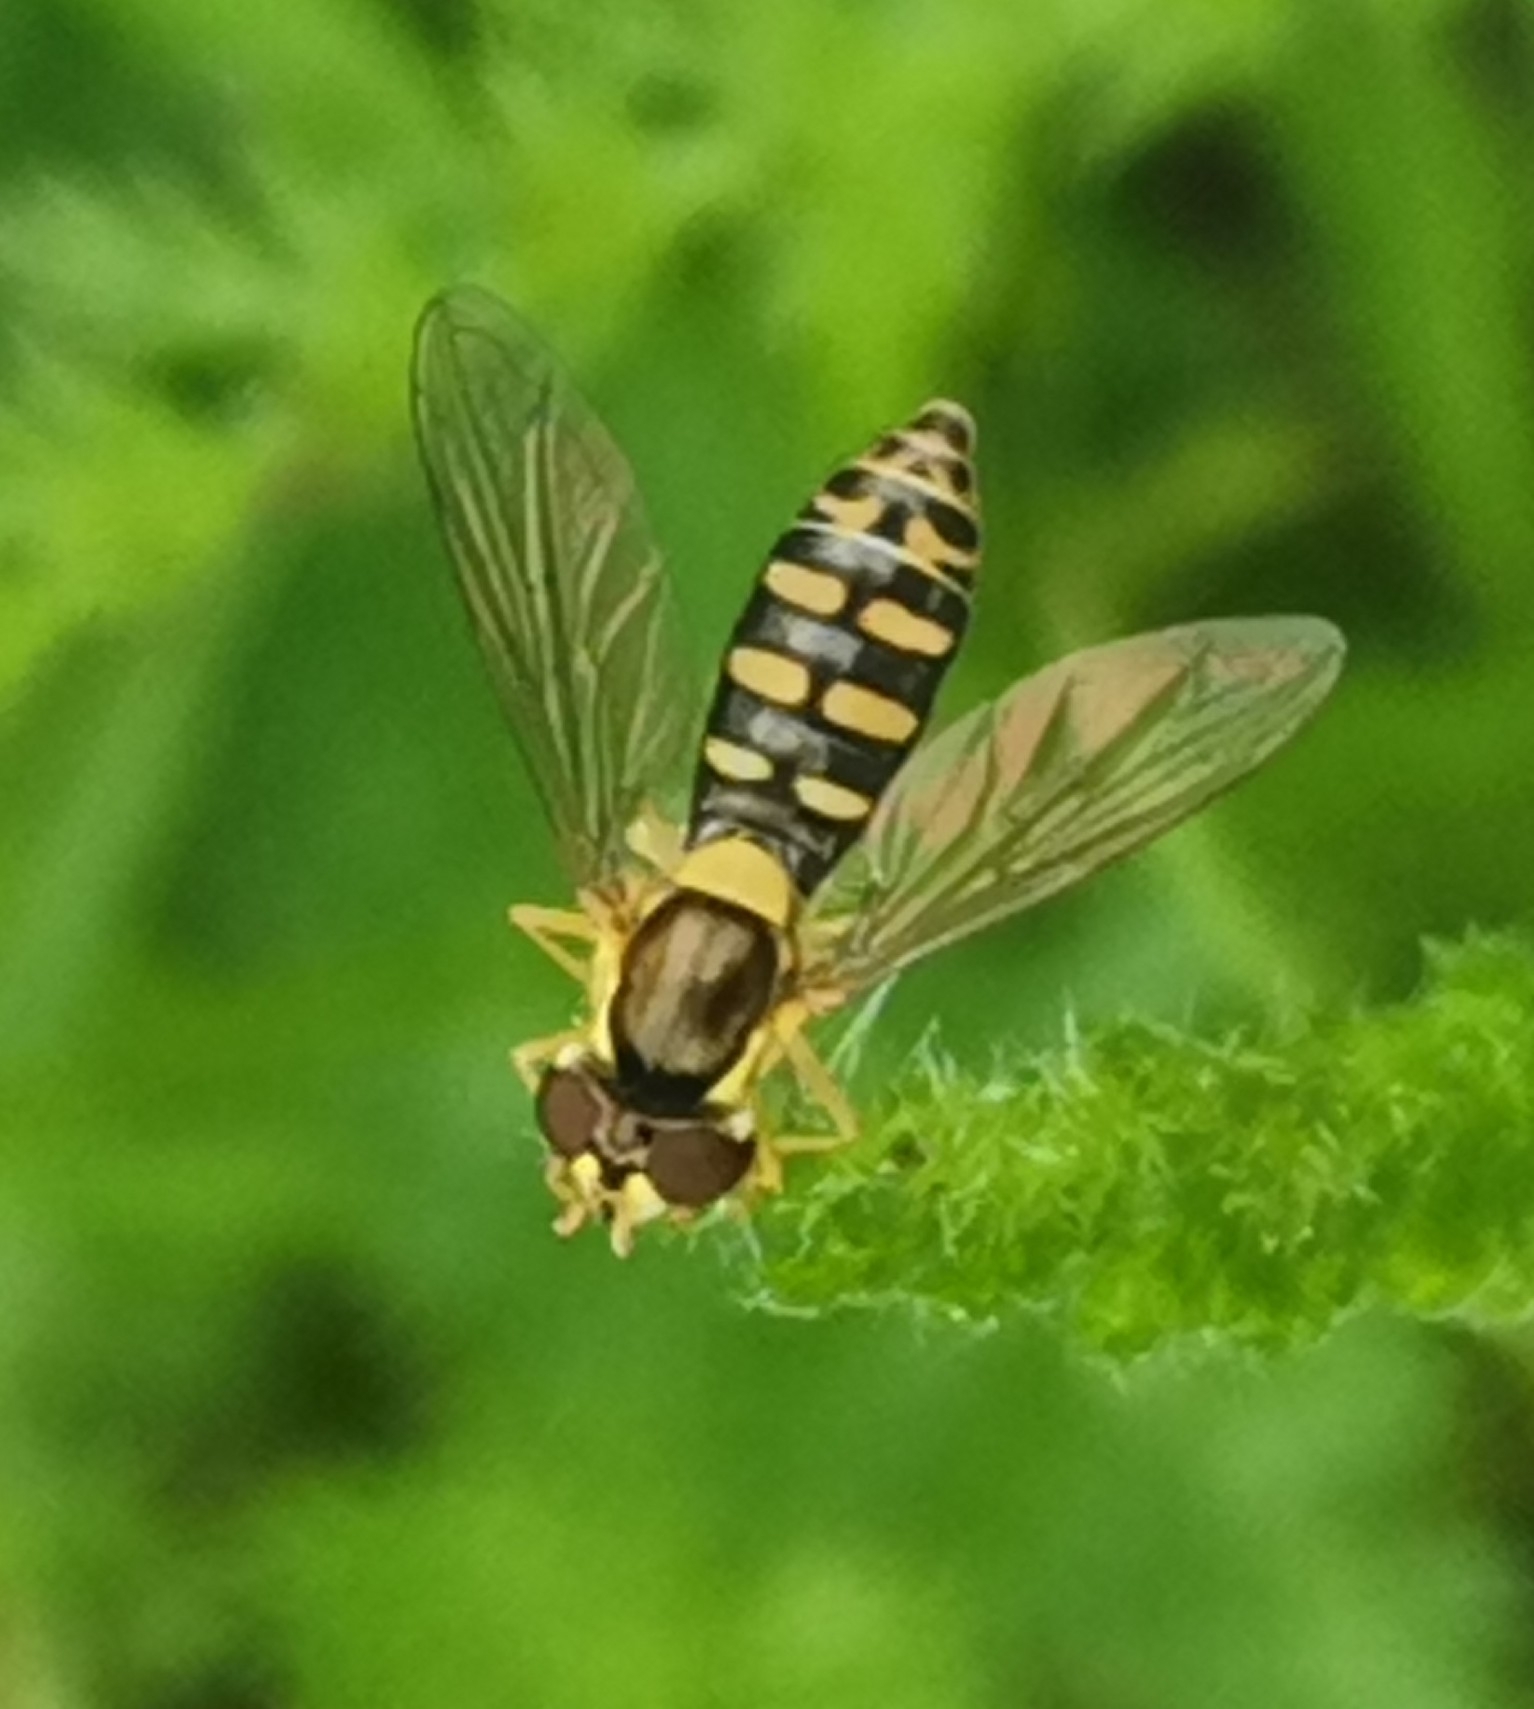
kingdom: Animalia
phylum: Arthropoda
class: Insecta
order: Diptera
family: Syrphidae
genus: Sphaerophoria
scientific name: Sphaerophoria
